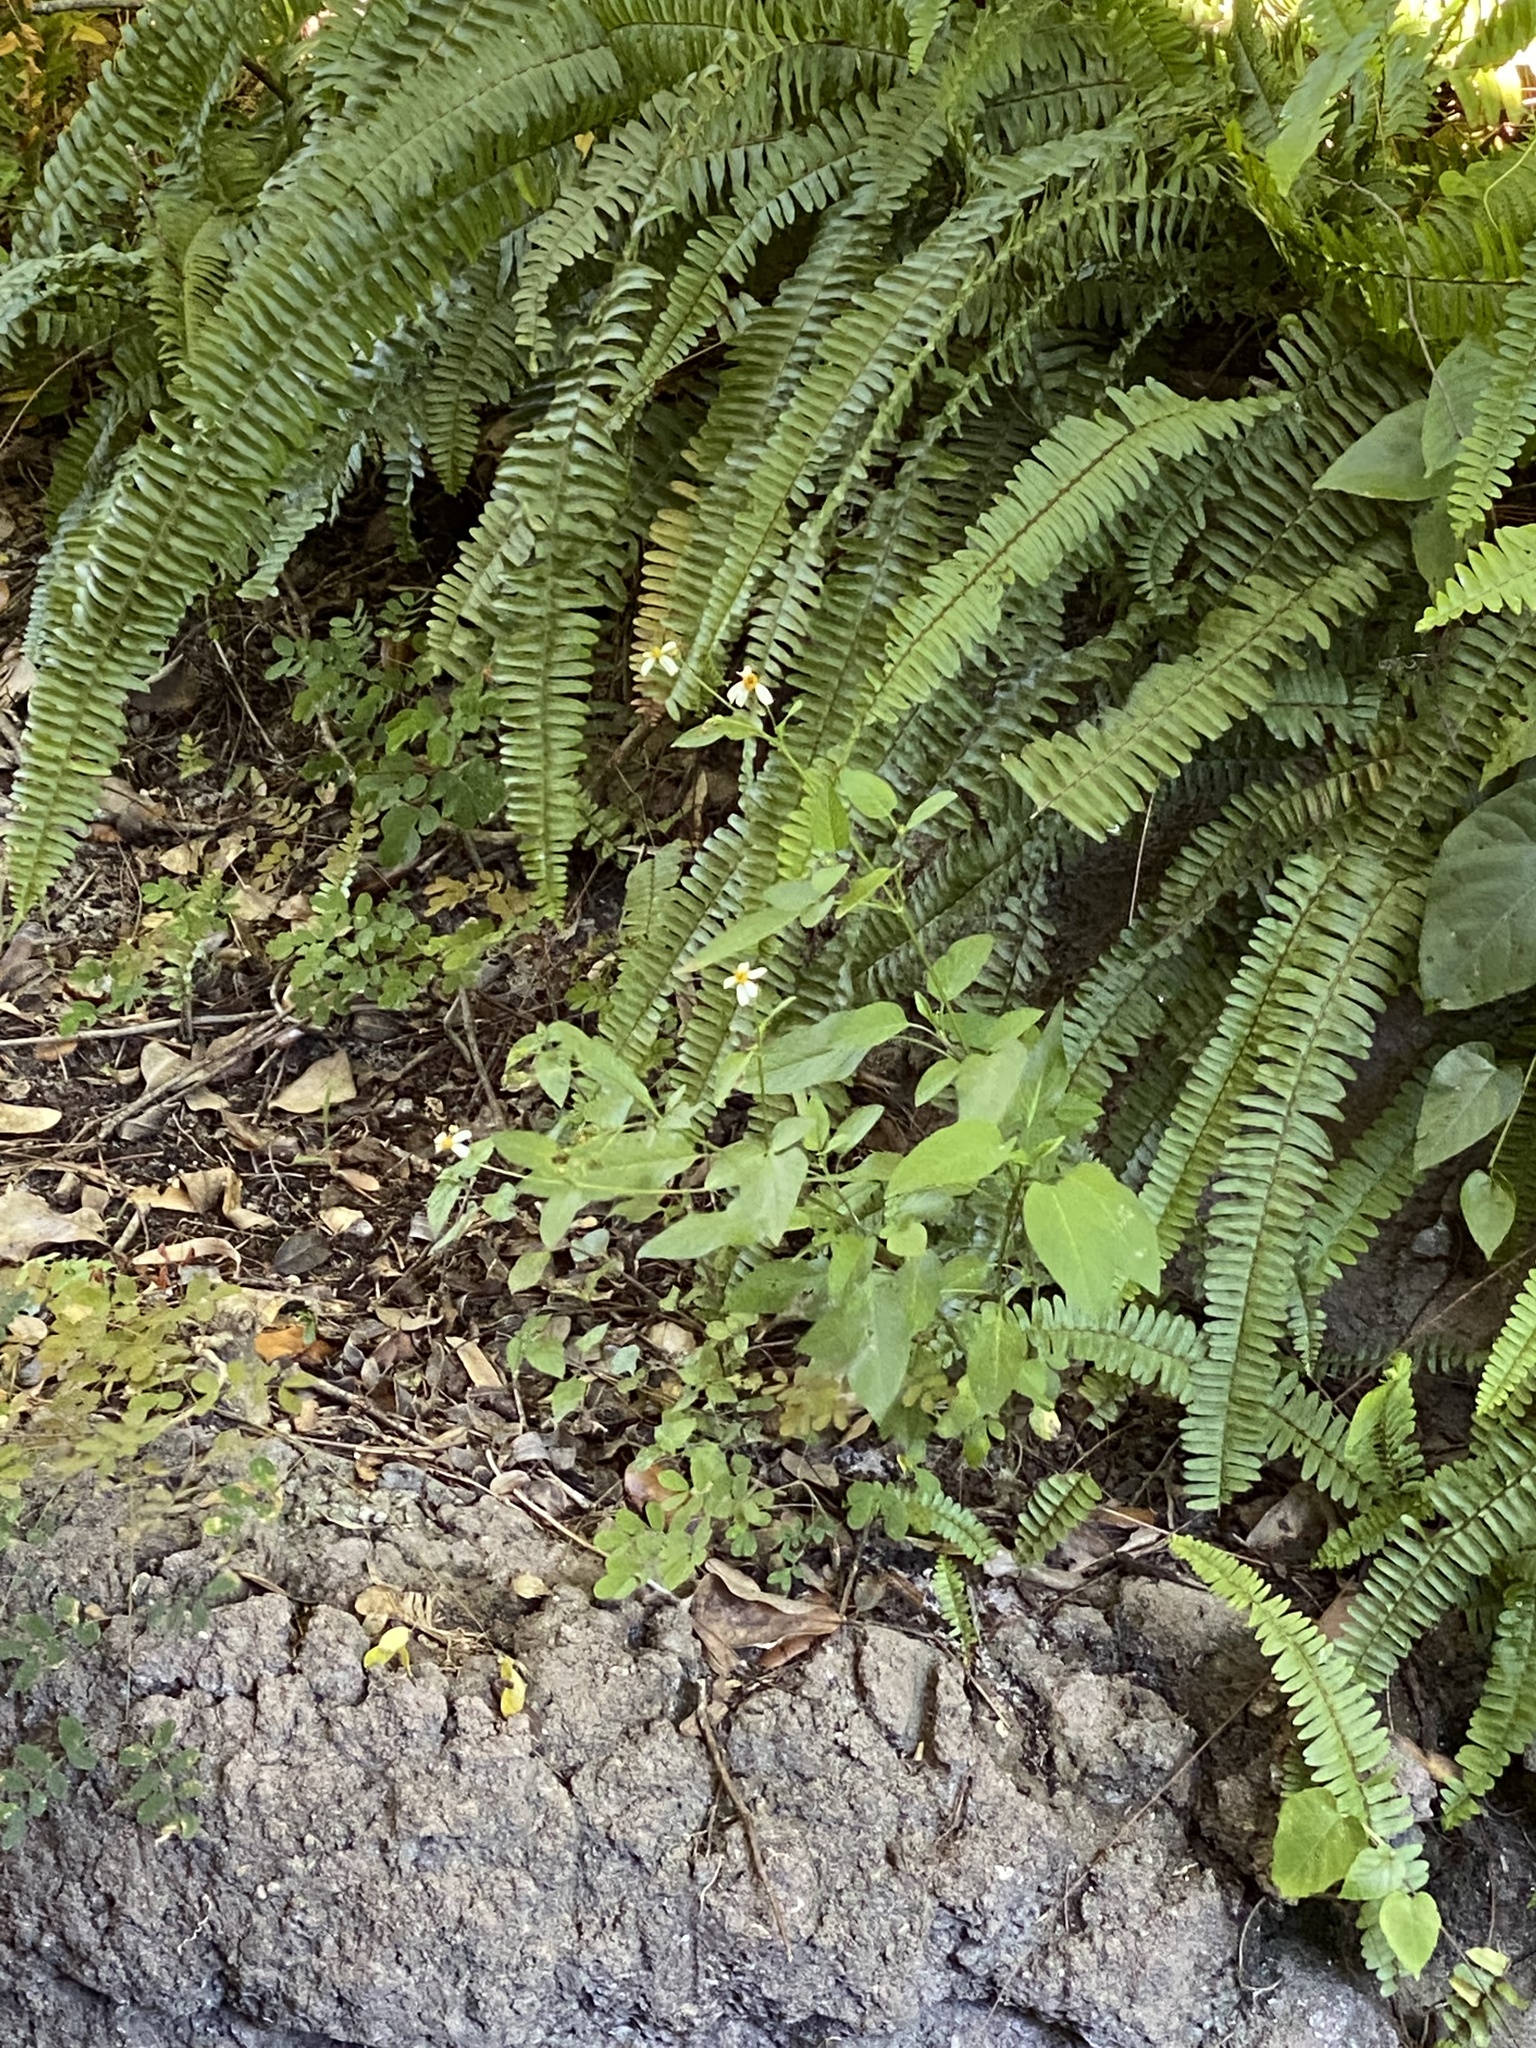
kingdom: Plantae
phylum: Tracheophyta
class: Magnoliopsida
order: Asterales
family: Asteraceae
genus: Bidens
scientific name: Bidens alba
